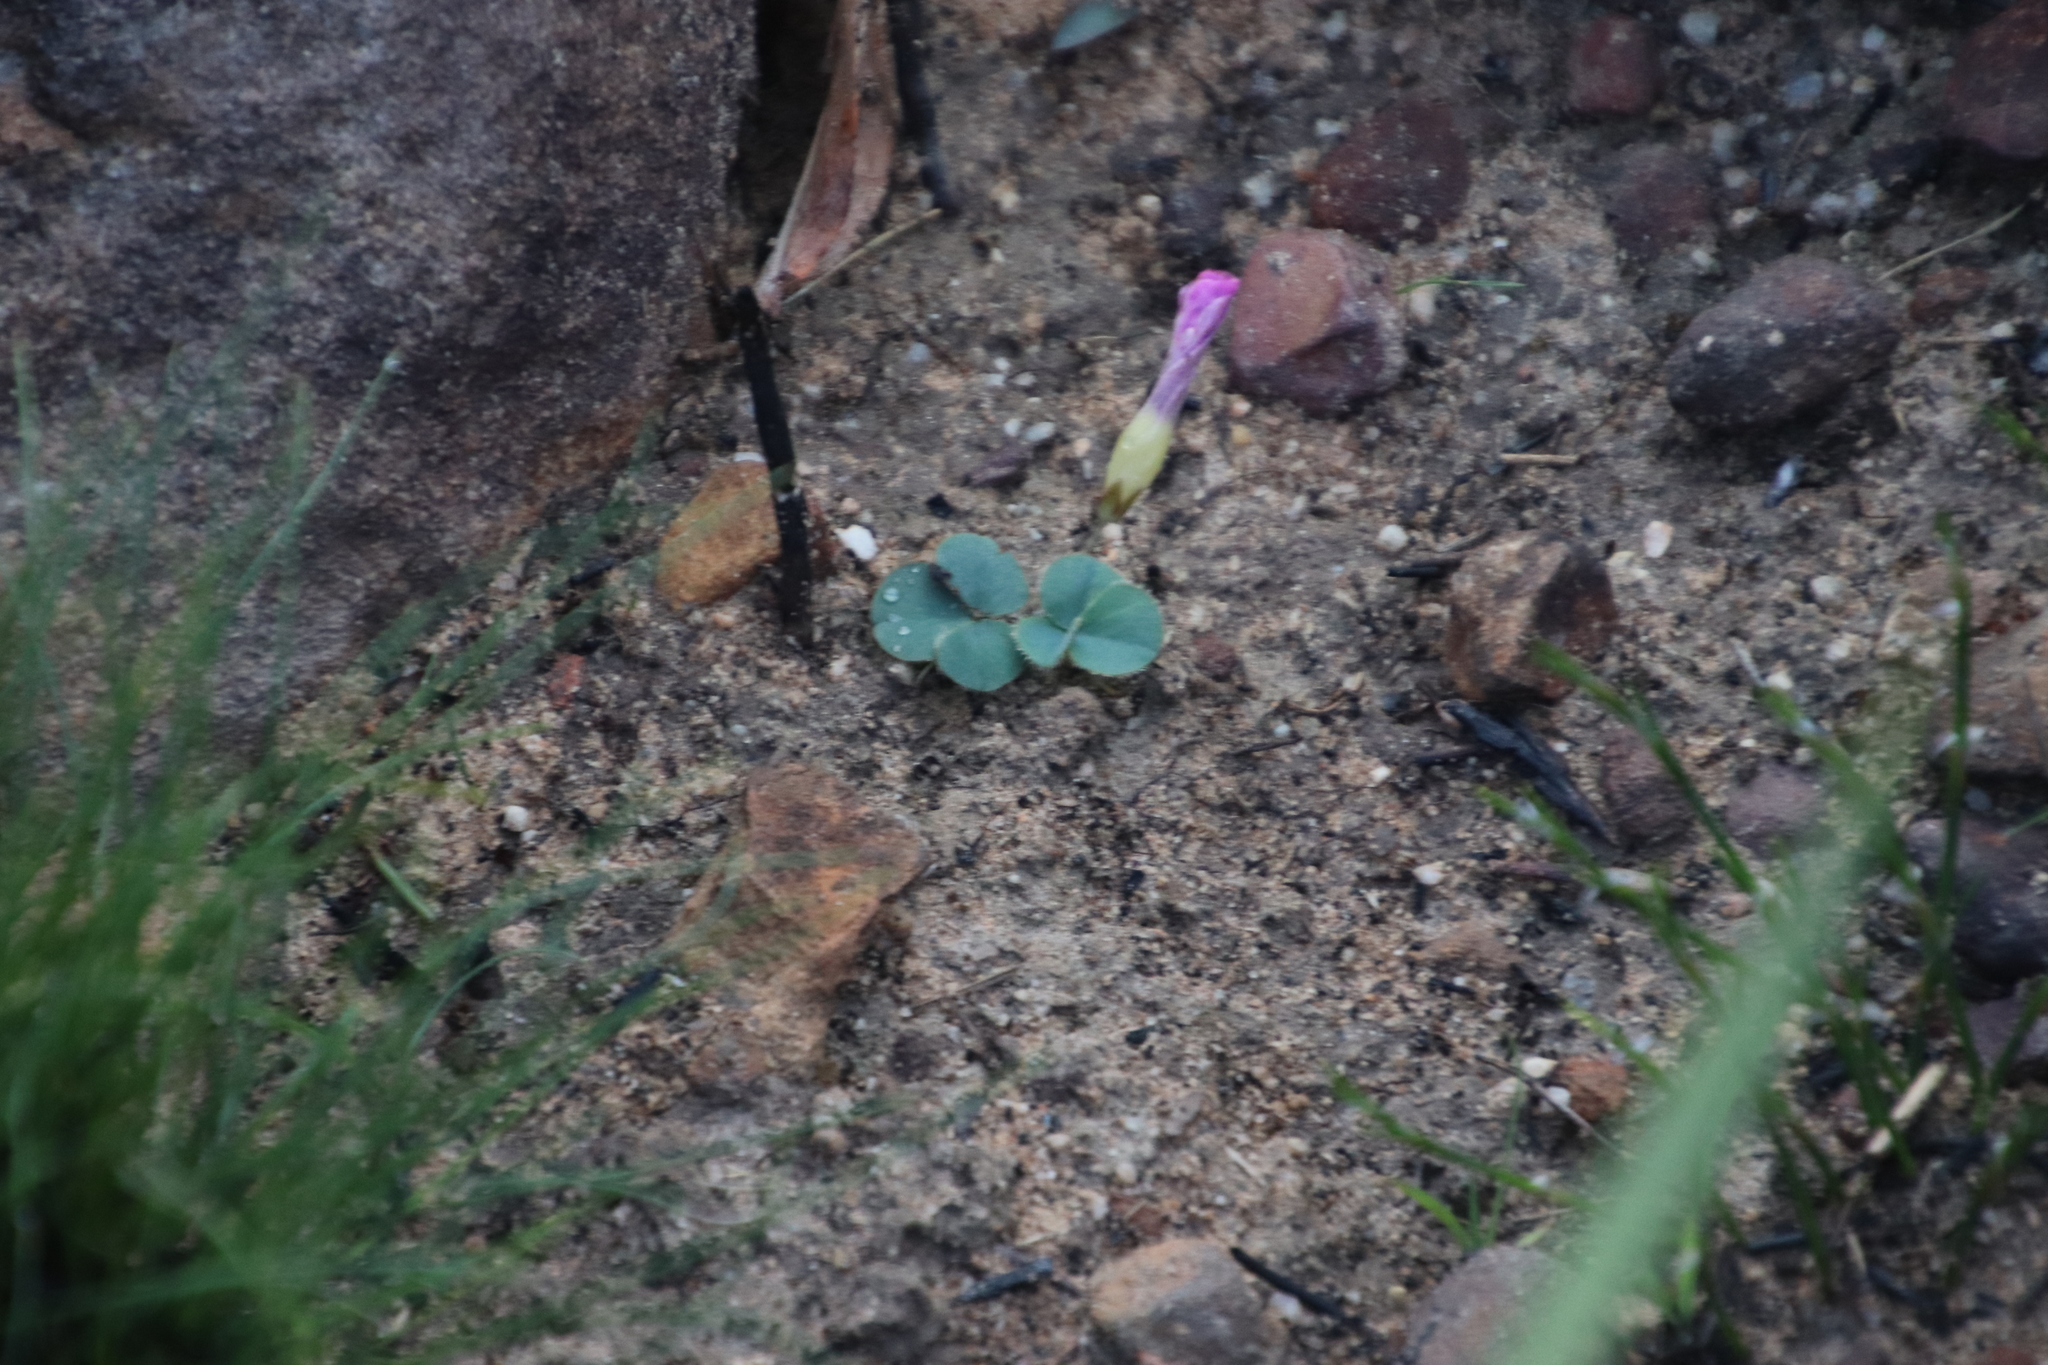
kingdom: Plantae
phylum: Tracheophyta
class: Magnoliopsida
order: Oxalidales
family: Oxalidaceae
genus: Oxalis
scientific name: Oxalis purpurea
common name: Purple woodsorrel
